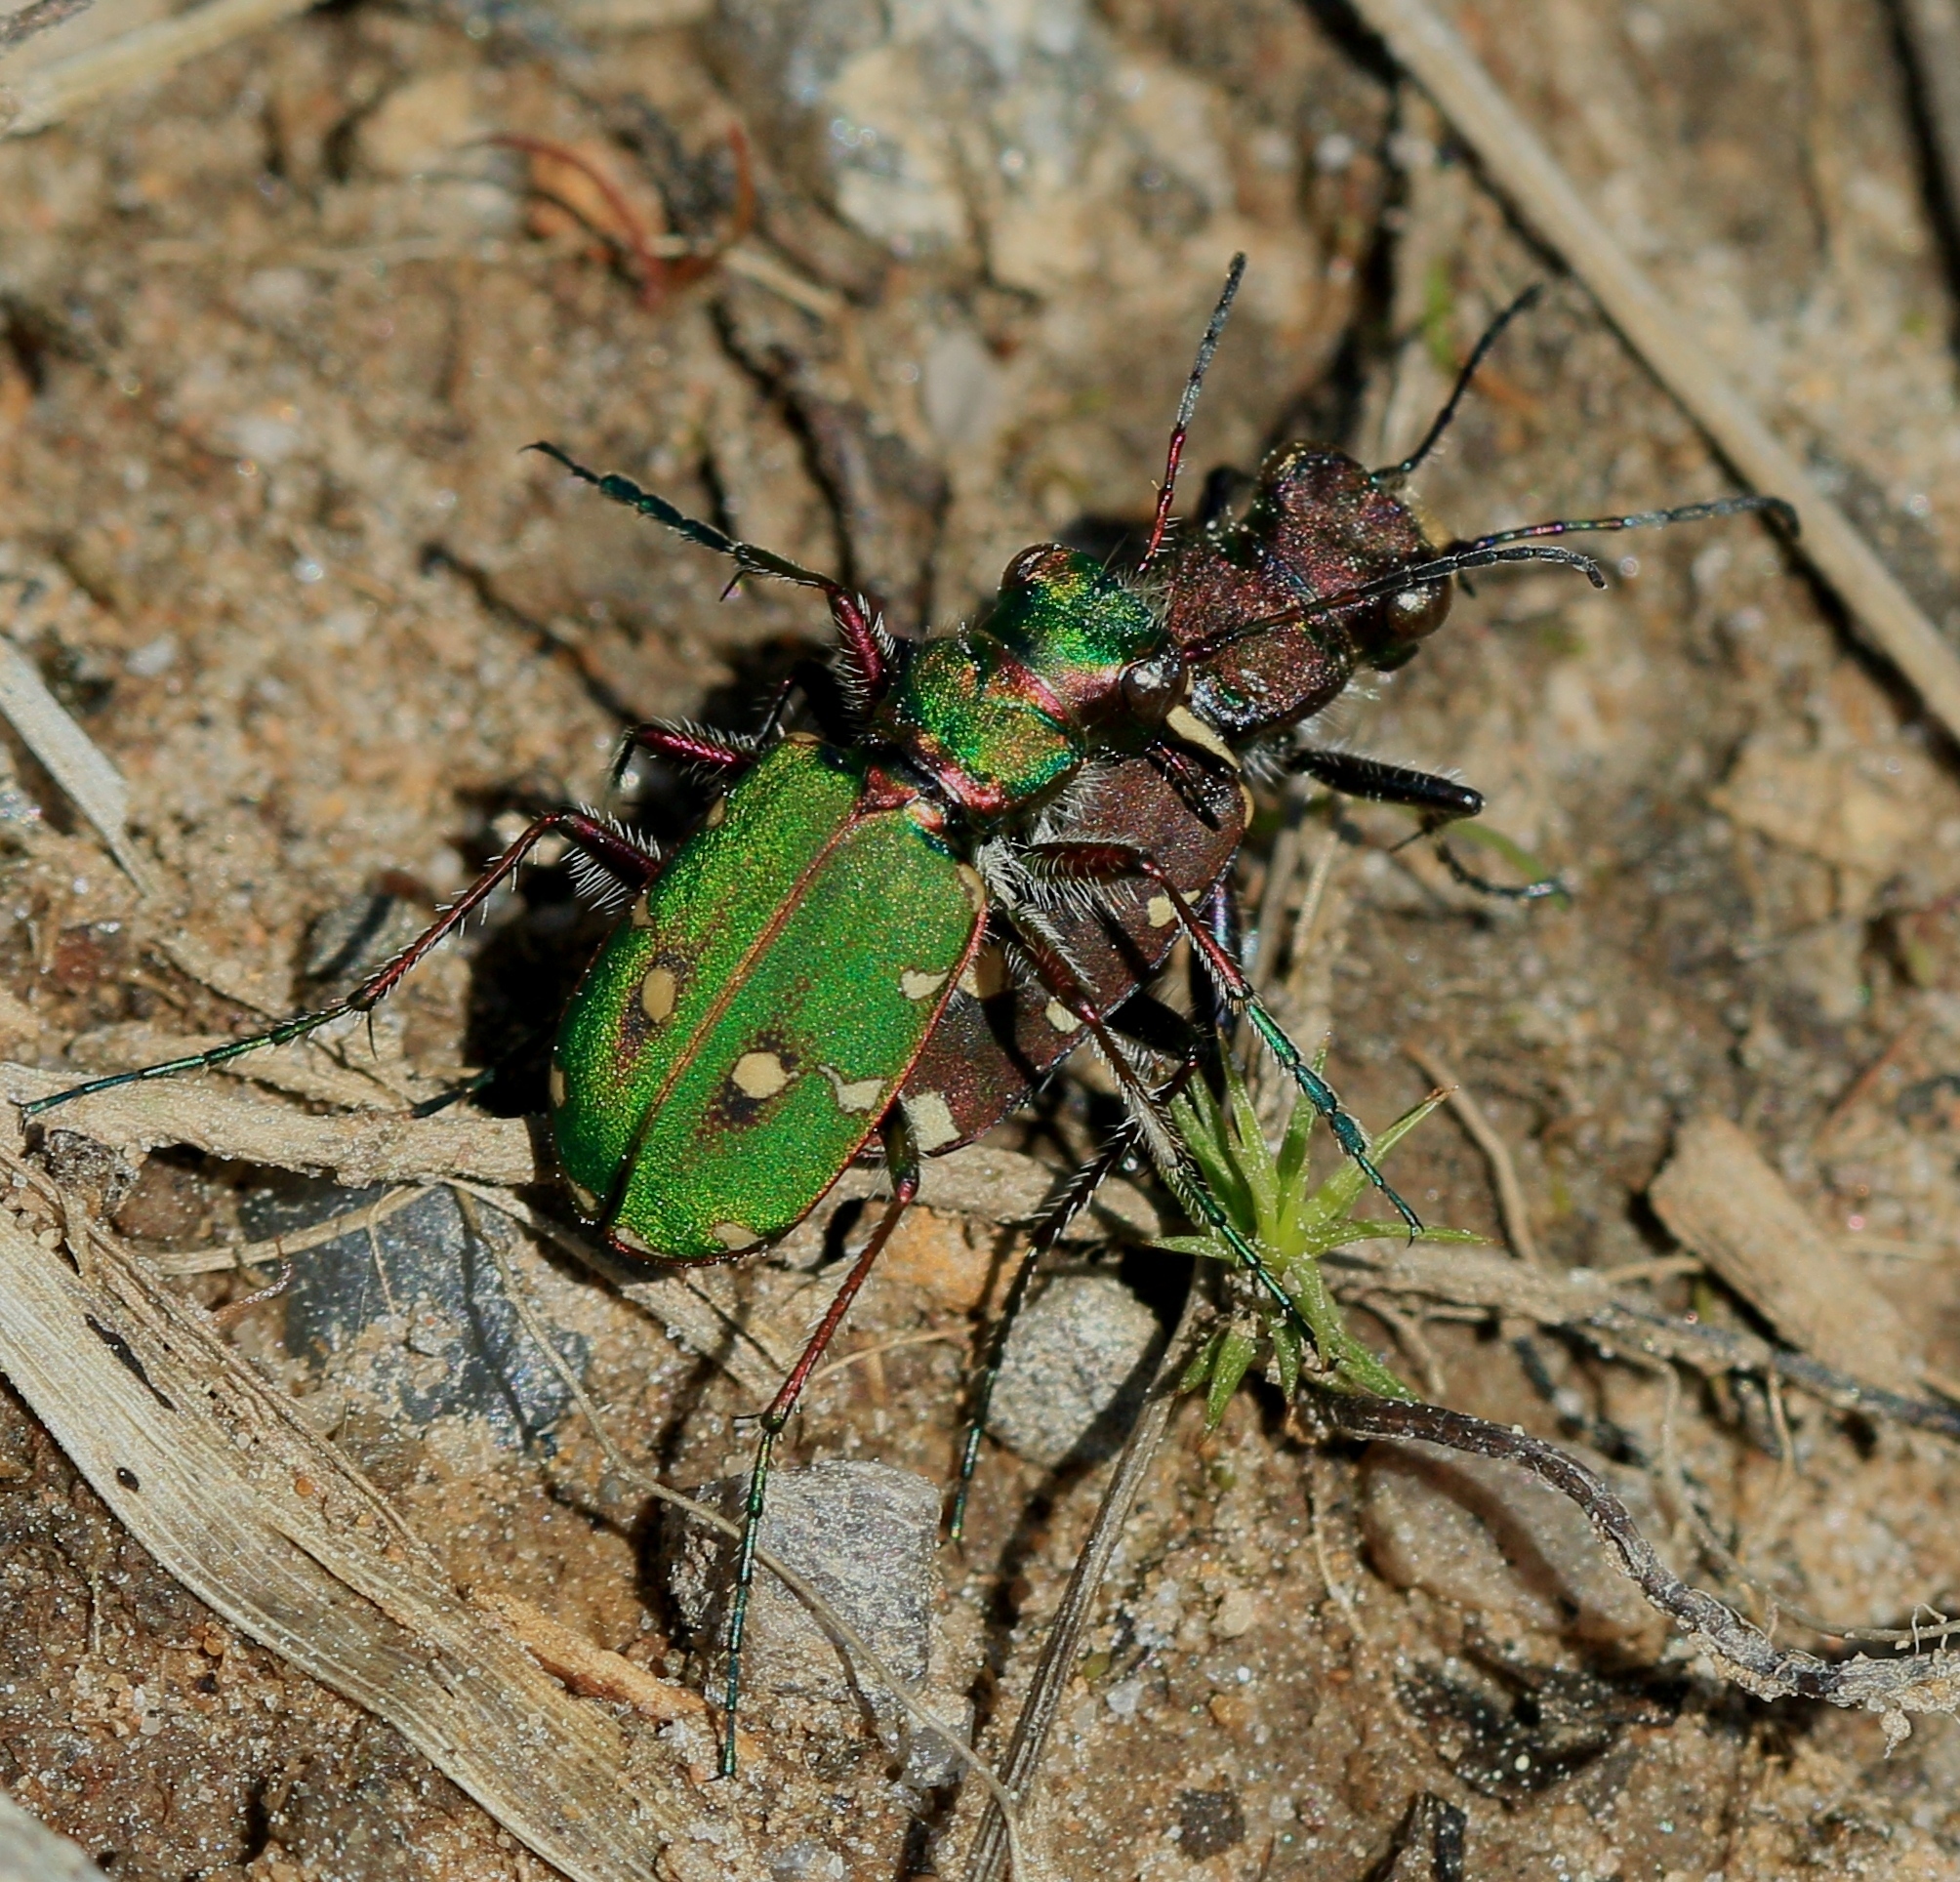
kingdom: Animalia
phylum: Arthropoda
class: Insecta
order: Coleoptera
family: Carabidae
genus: Cicindela
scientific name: Cicindela campestris
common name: Common tiger beetle
